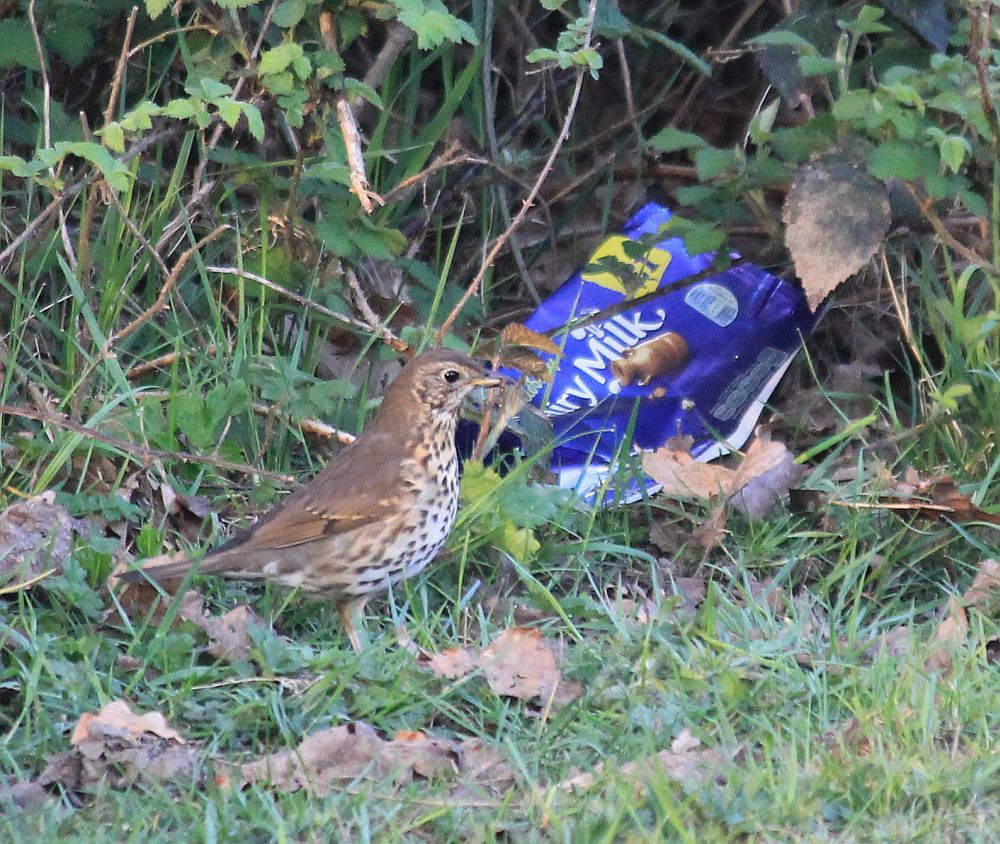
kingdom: Animalia
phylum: Chordata
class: Aves
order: Passeriformes
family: Turdidae
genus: Turdus
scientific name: Turdus philomelos
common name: Song thrush
